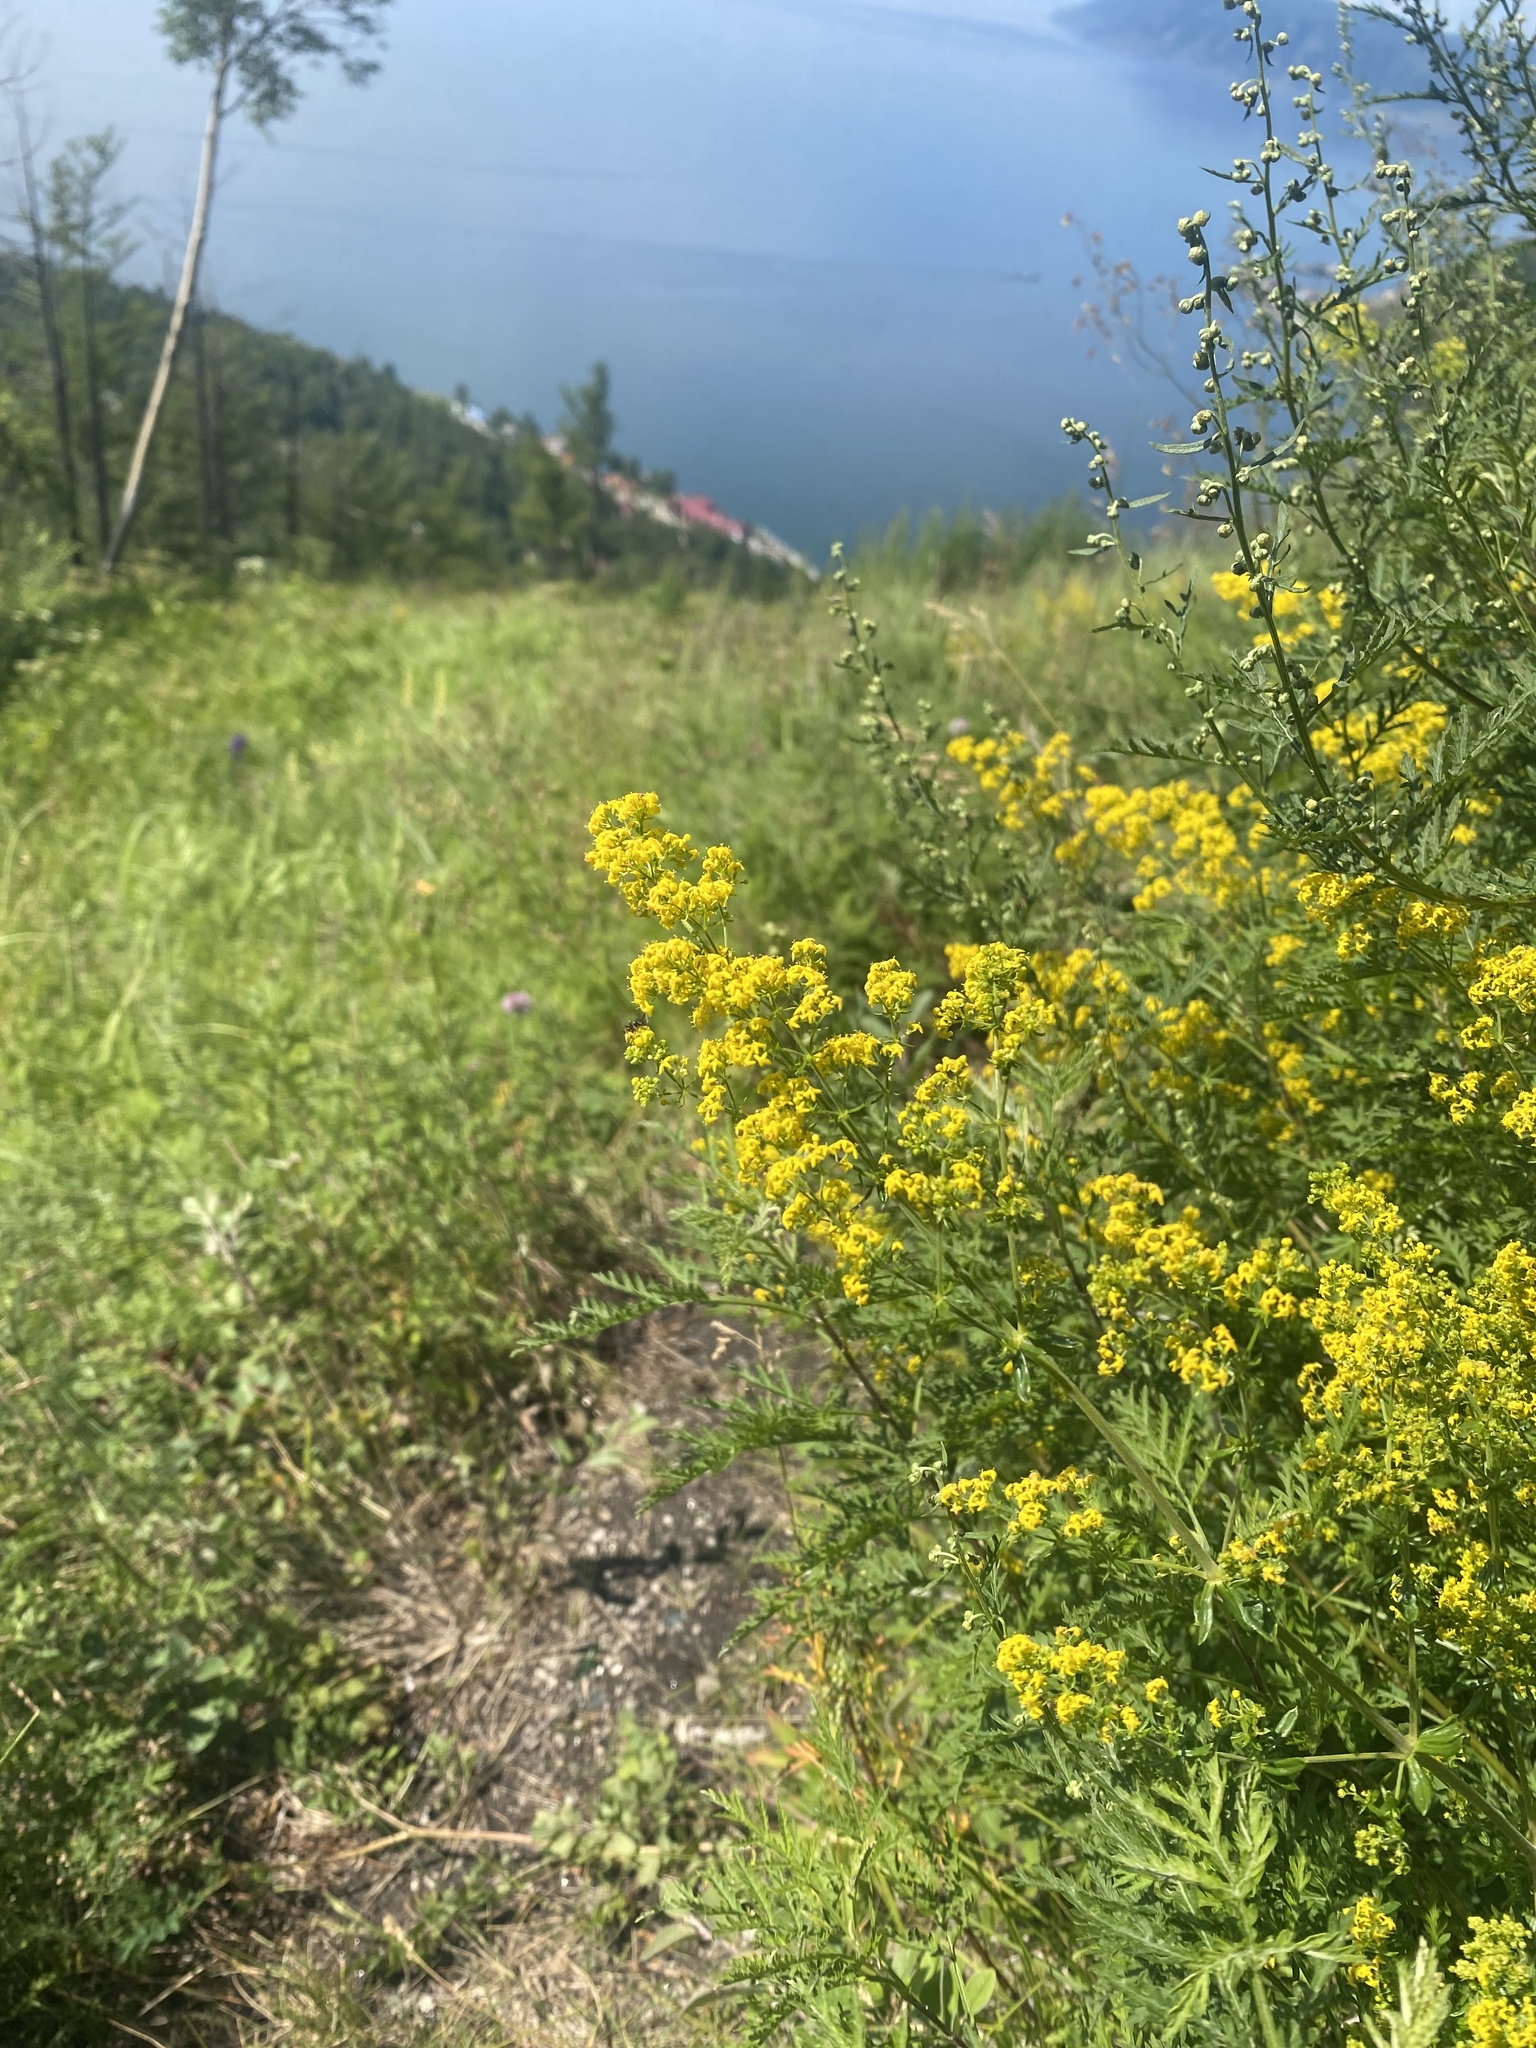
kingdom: Plantae
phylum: Tracheophyta
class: Magnoliopsida
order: Gentianales
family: Rubiaceae
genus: Galium
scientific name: Galium verum
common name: Lady's bedstraw
